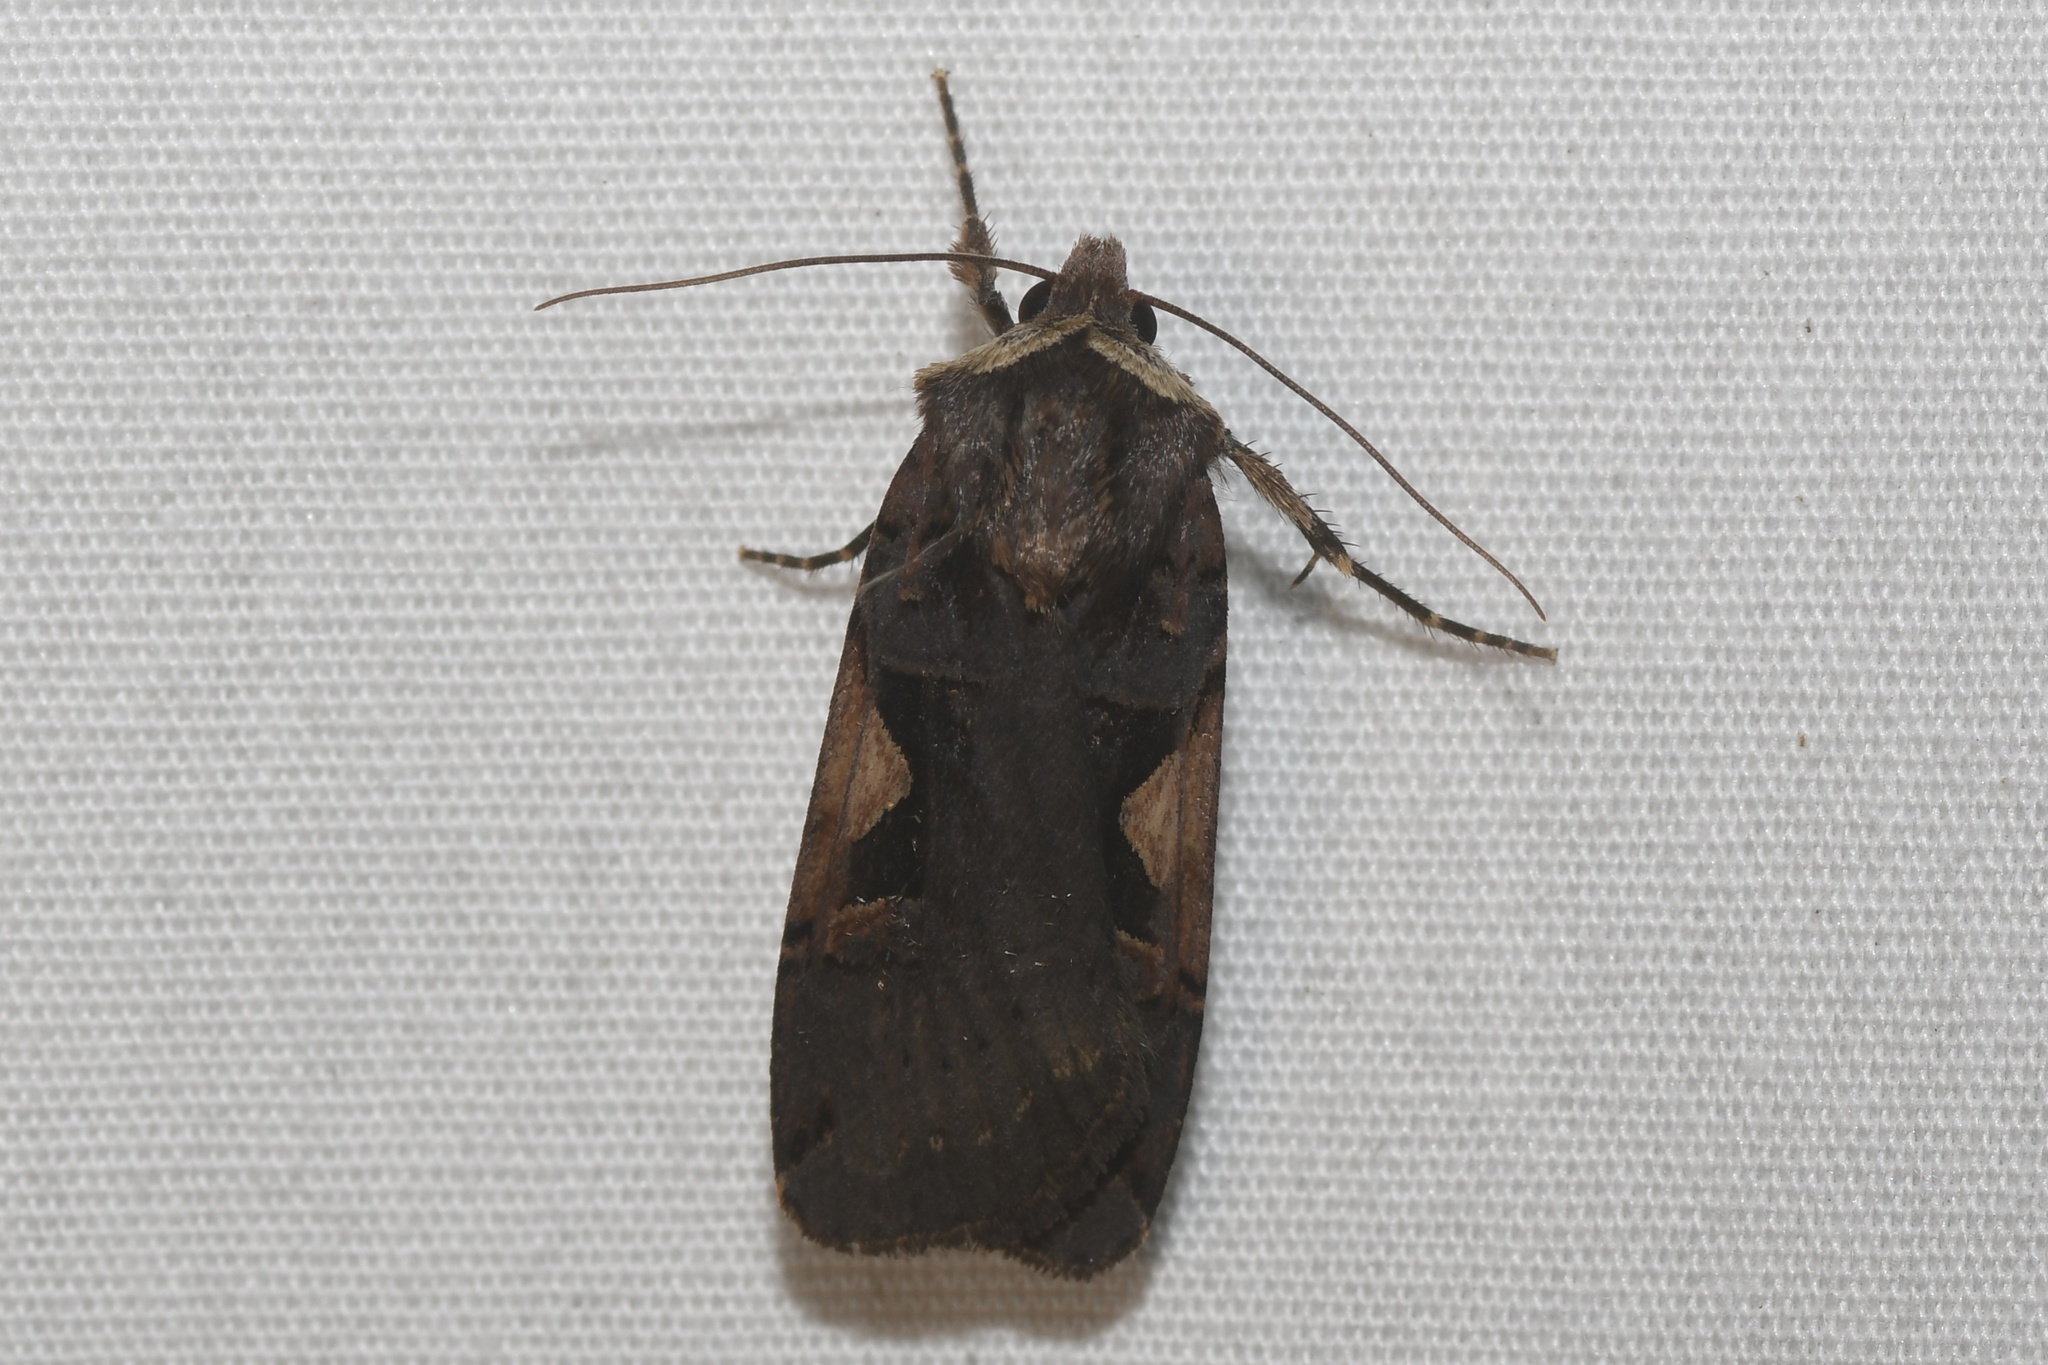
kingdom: Animalia
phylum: Arthropoda
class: Insecta
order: Lepidoptera
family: Noctuidae
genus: Xestia
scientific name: Xestia
